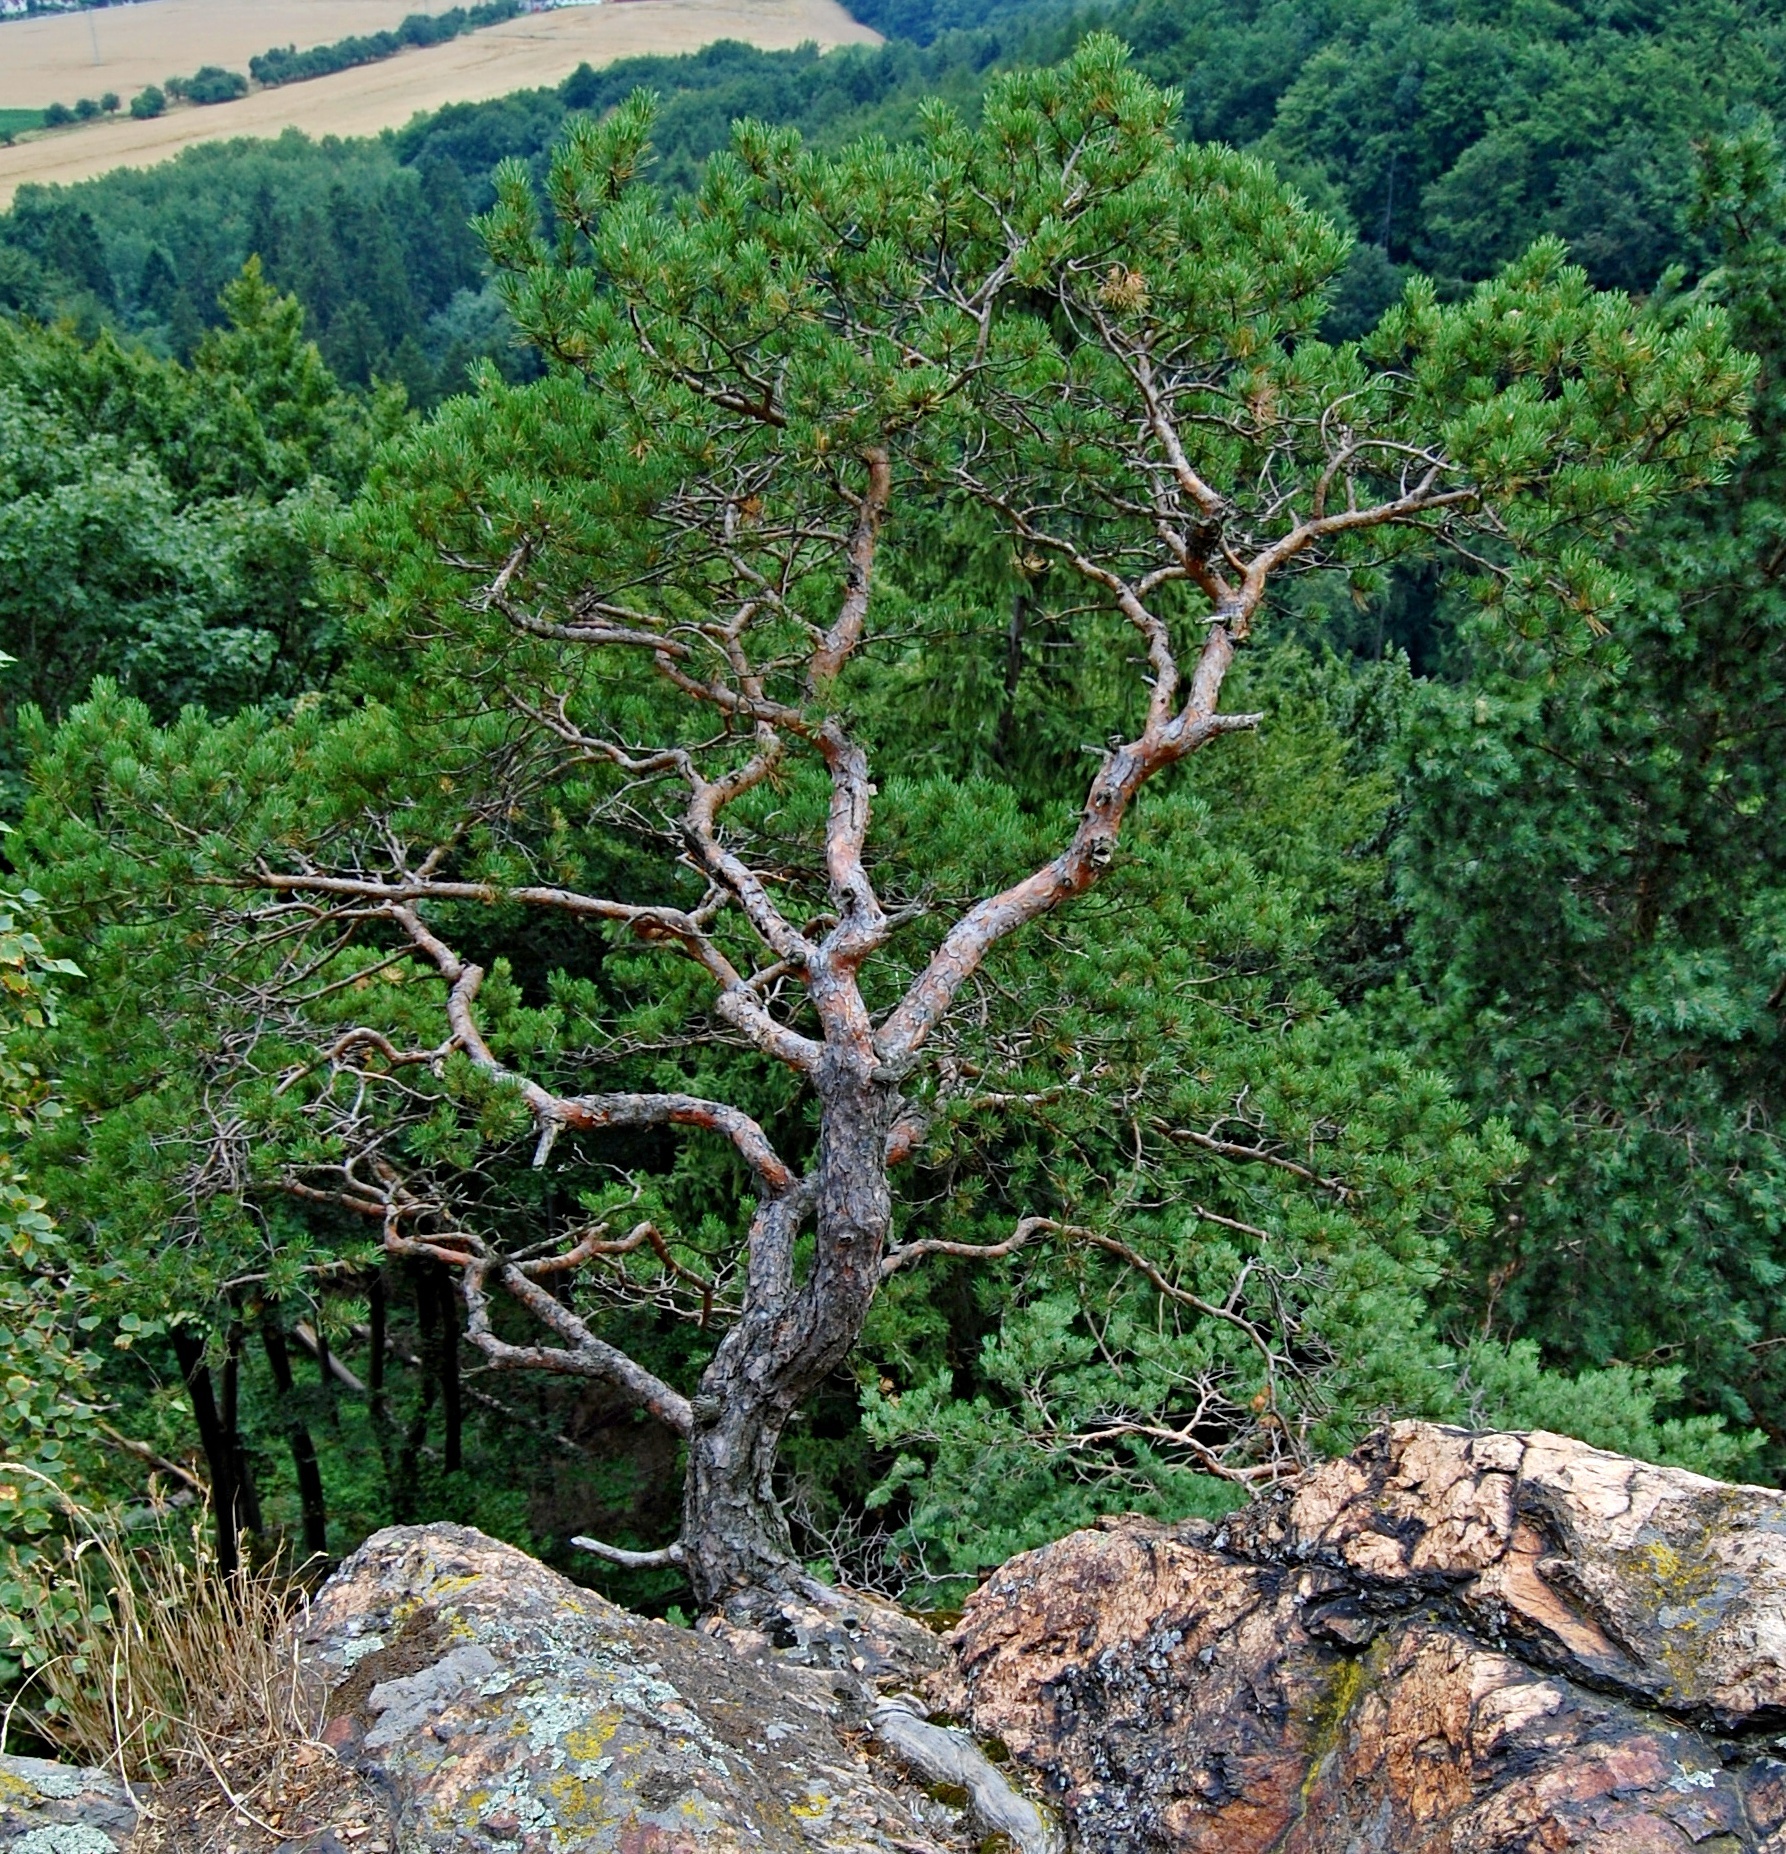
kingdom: Plantae
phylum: Tracheophyta
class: Pinopsida
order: Pinales
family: Pinaceae
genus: Pinus
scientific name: Pinus sylvestris
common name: Scots pine
